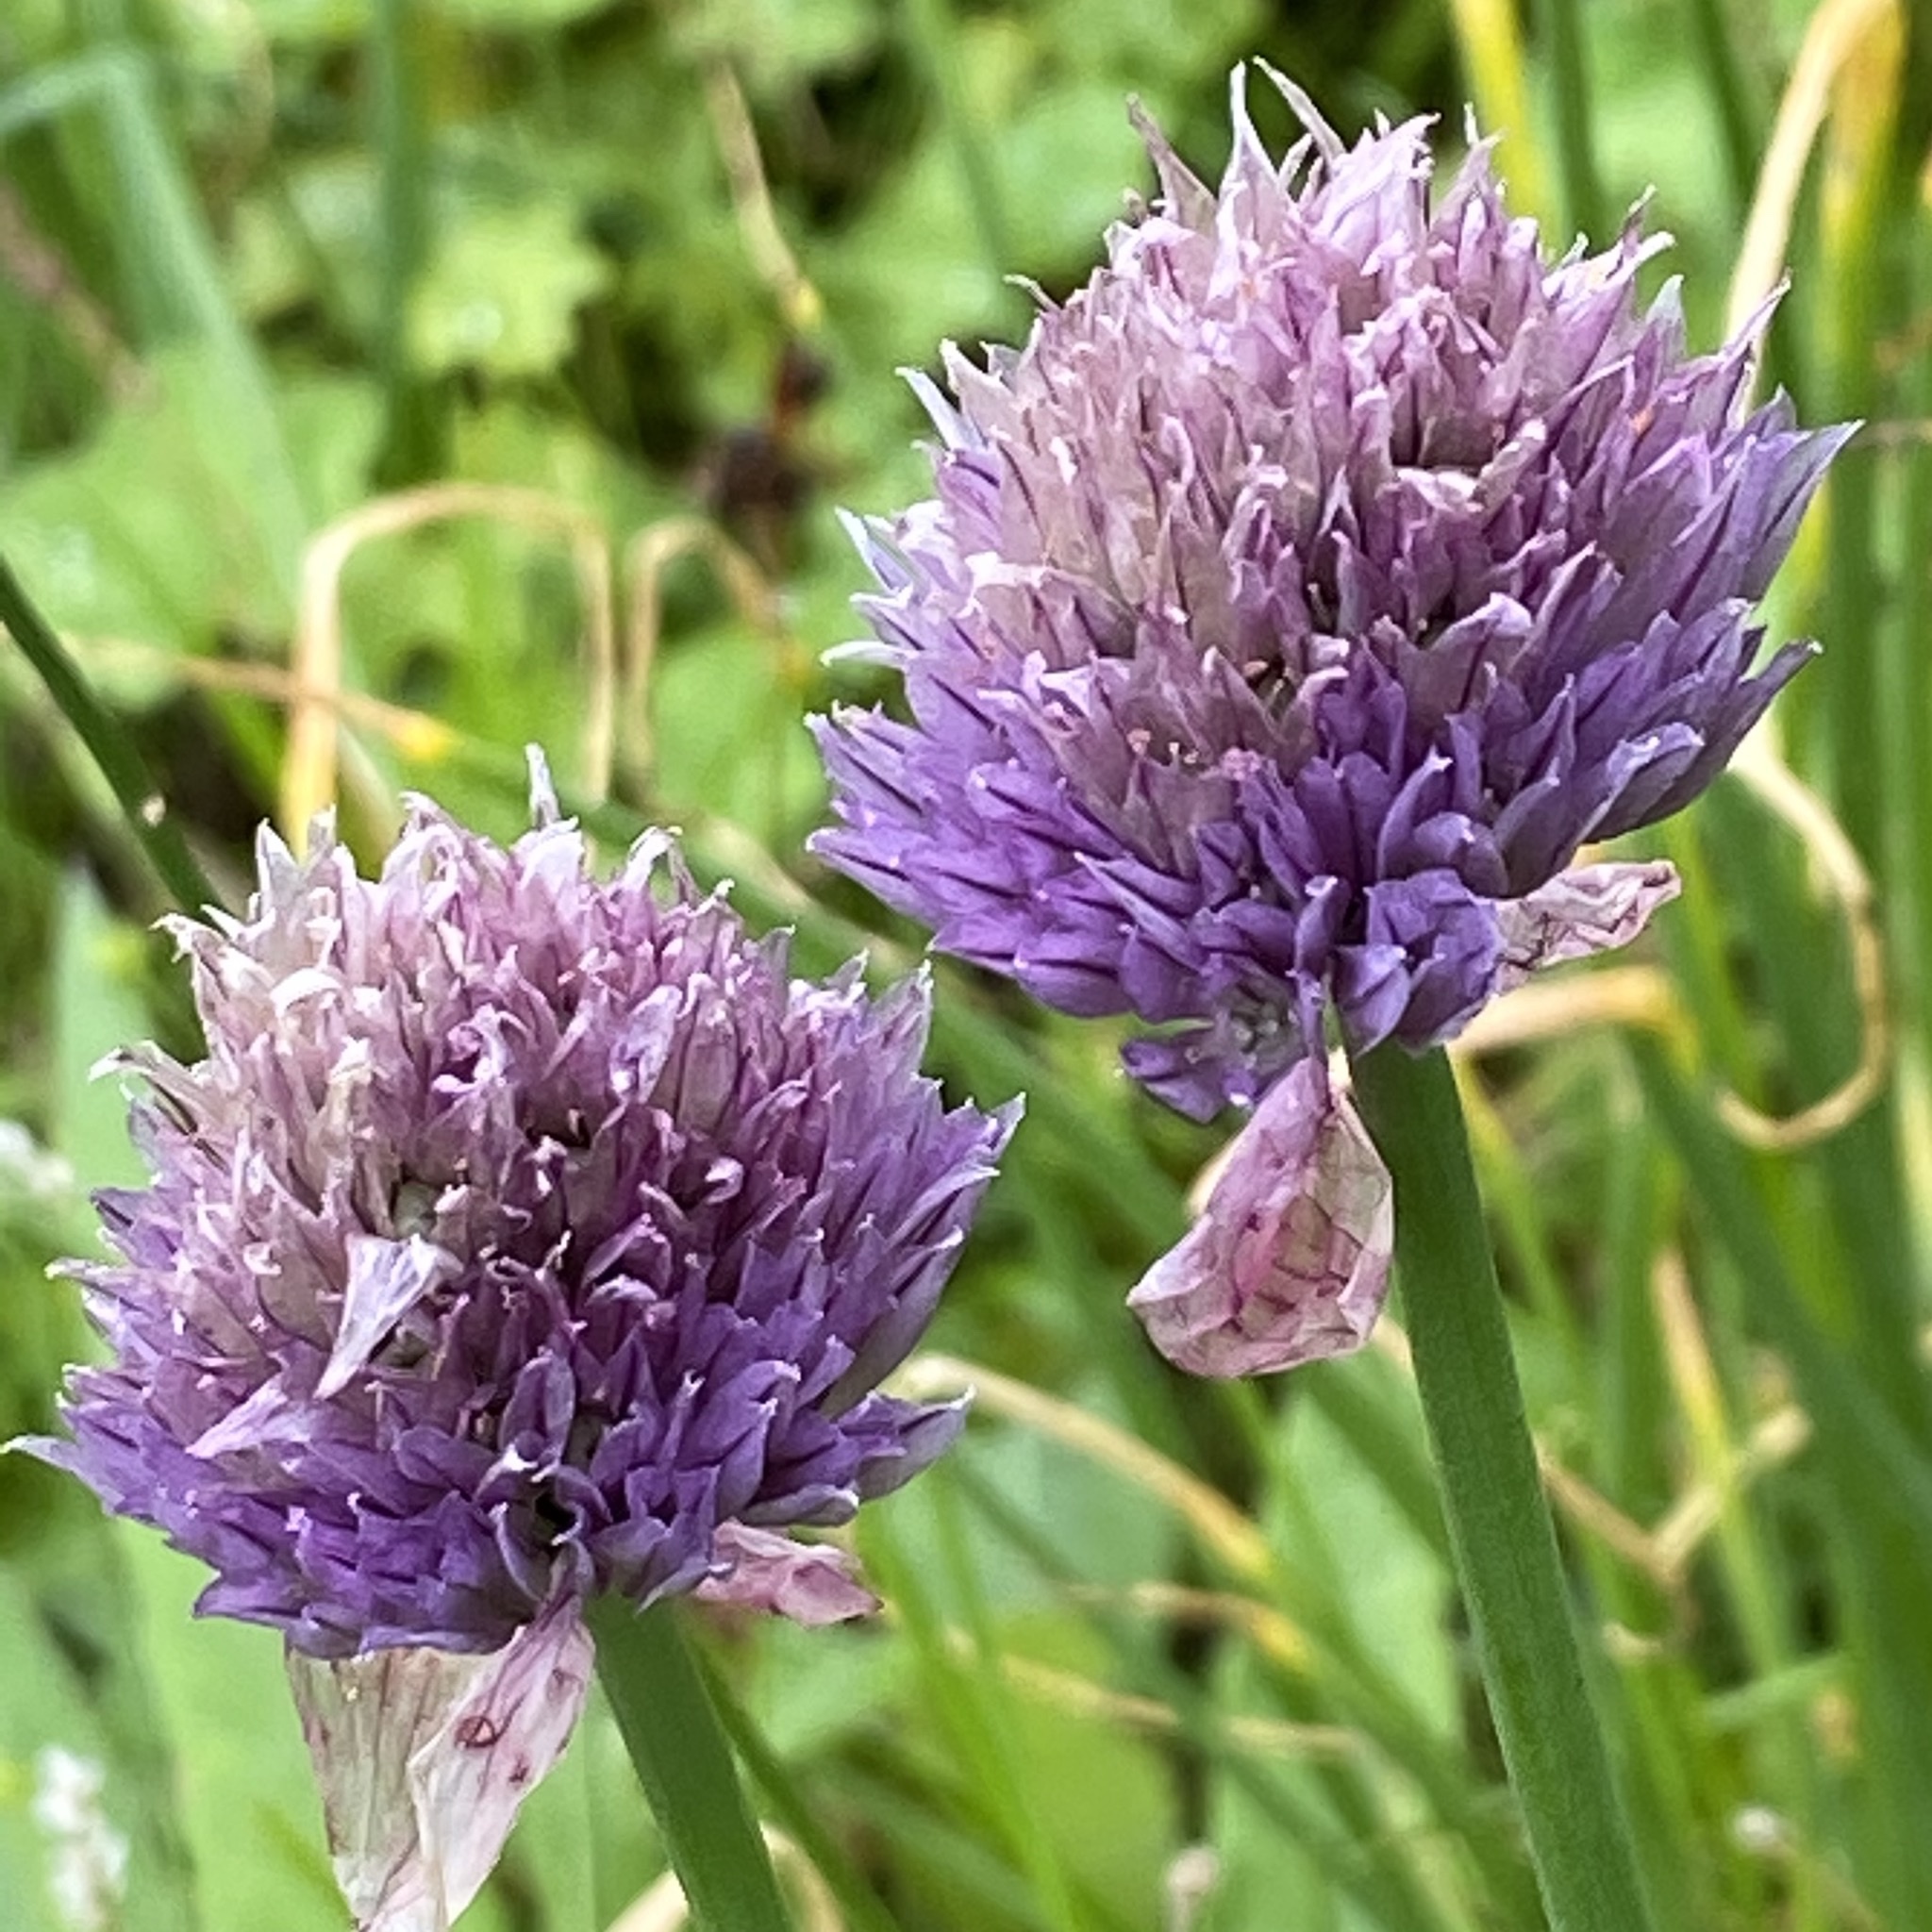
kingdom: Plantae
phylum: Tracheophyta
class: Liliopsida
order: Asparagales
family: Amaryllidaceae
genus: Allium
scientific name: Allium schoenoprasum
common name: Chives
